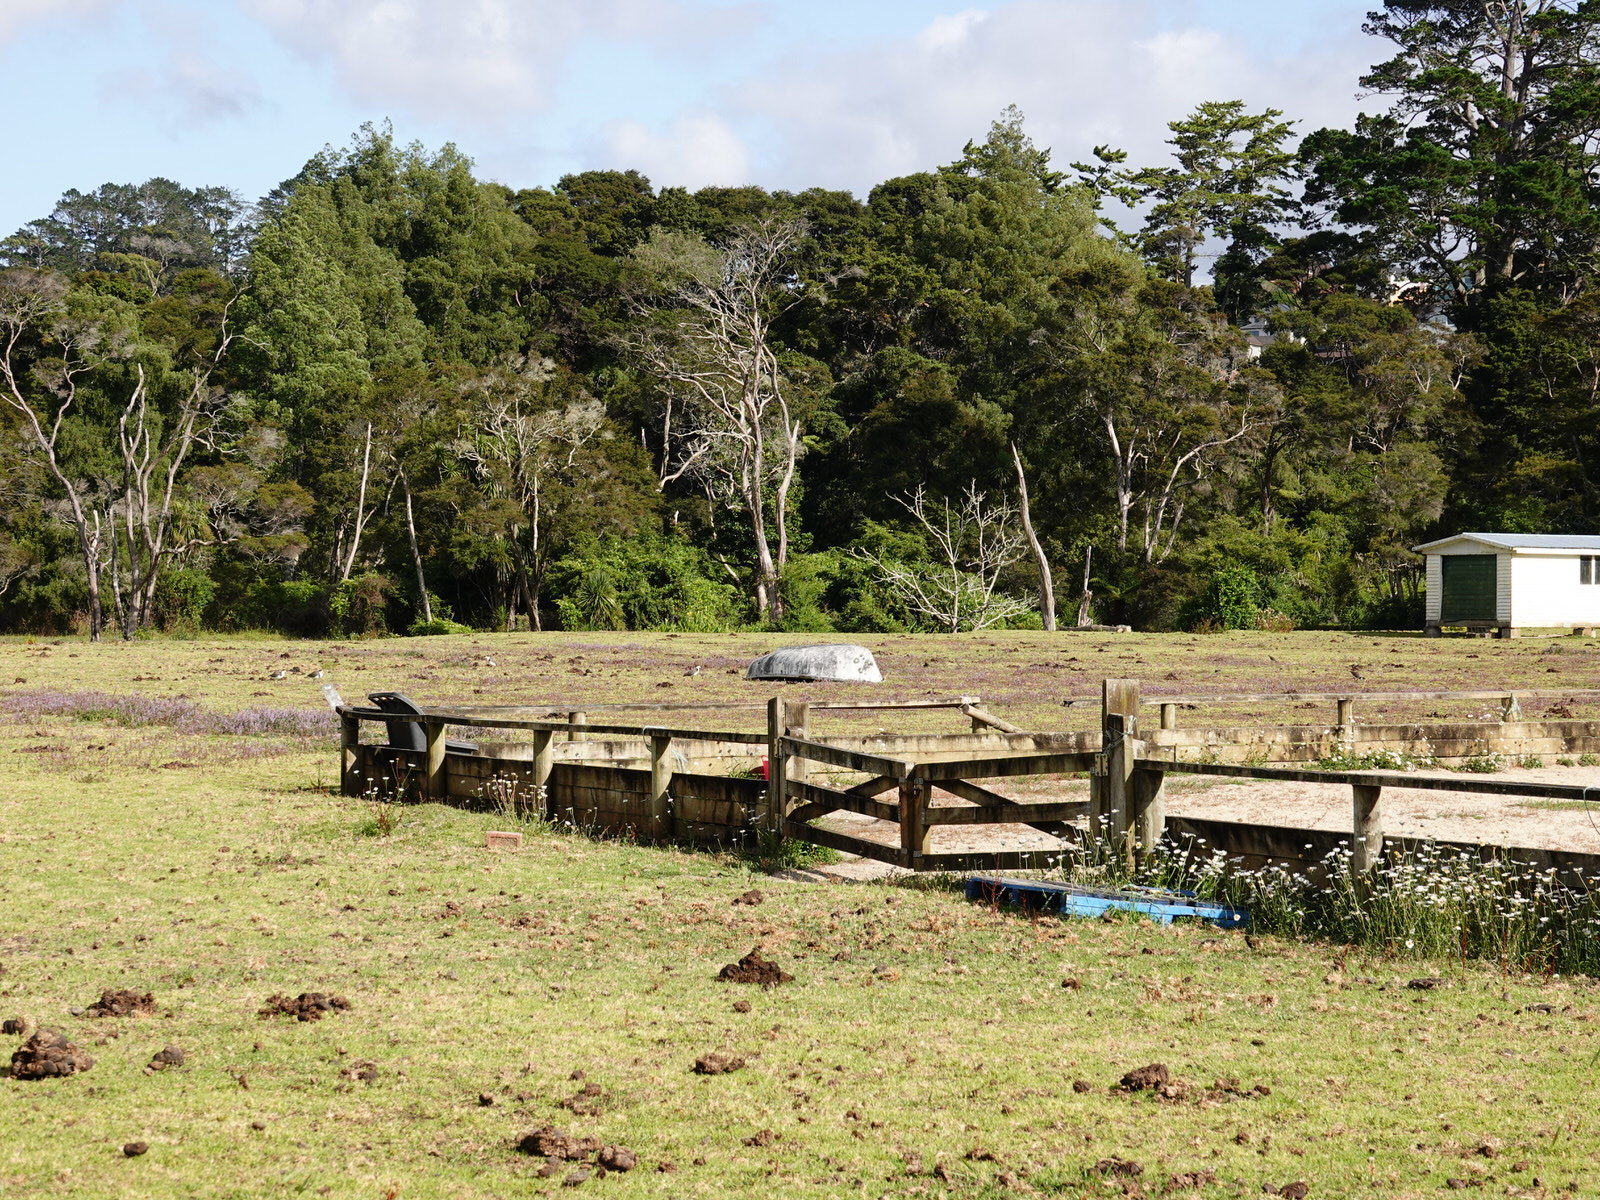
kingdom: Animalia
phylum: Chordata
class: Aves
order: Charadriiformes
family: Charadriidae
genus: Vanellus
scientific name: Vanellus miles
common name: Masked lapwing
